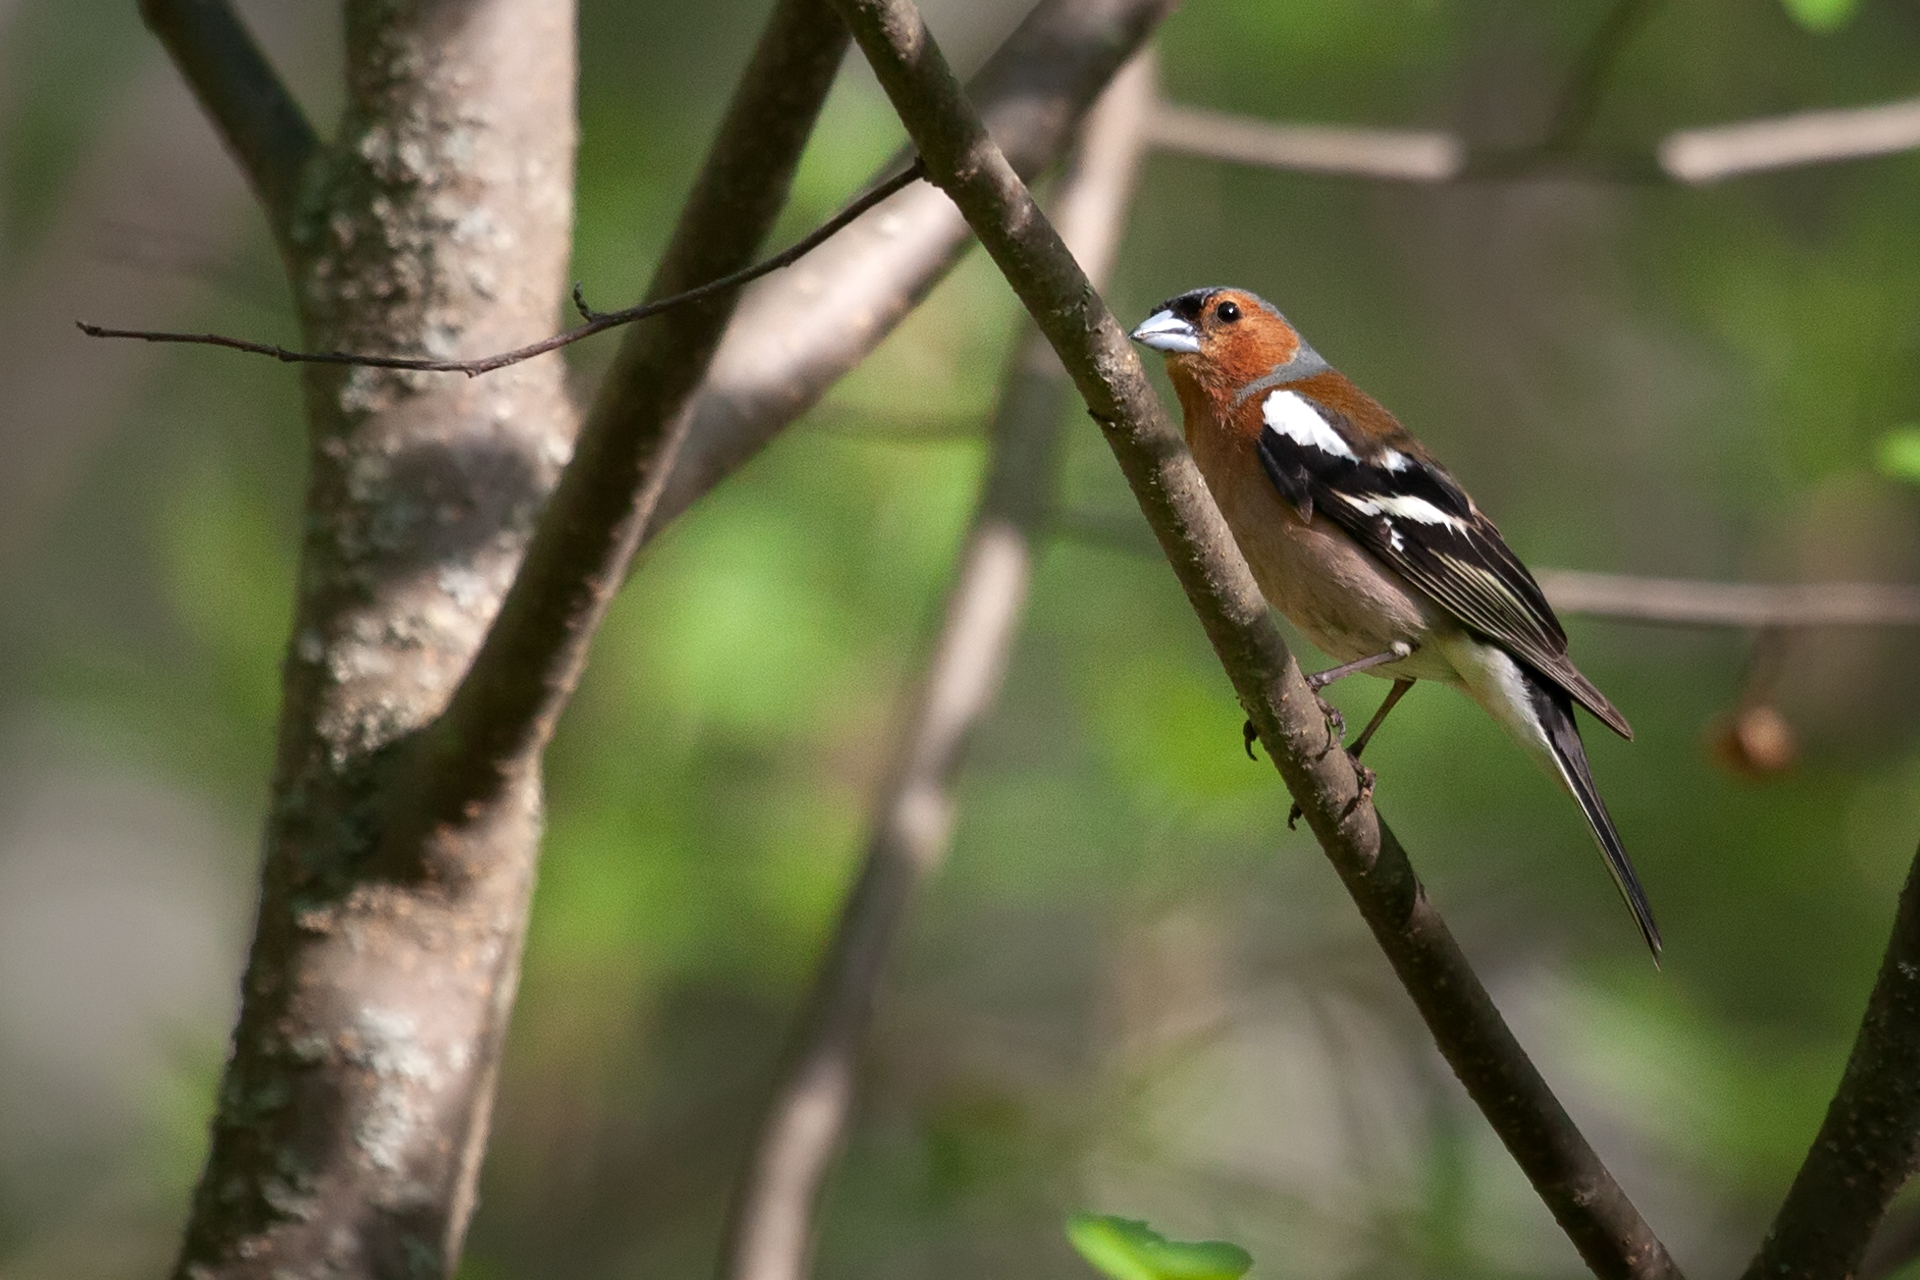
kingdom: Animalia
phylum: Chordata
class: Aves
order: Passeriformes
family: Fringillidae
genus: Fringilla
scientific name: Fringilla coelebs
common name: Common chaffinch
